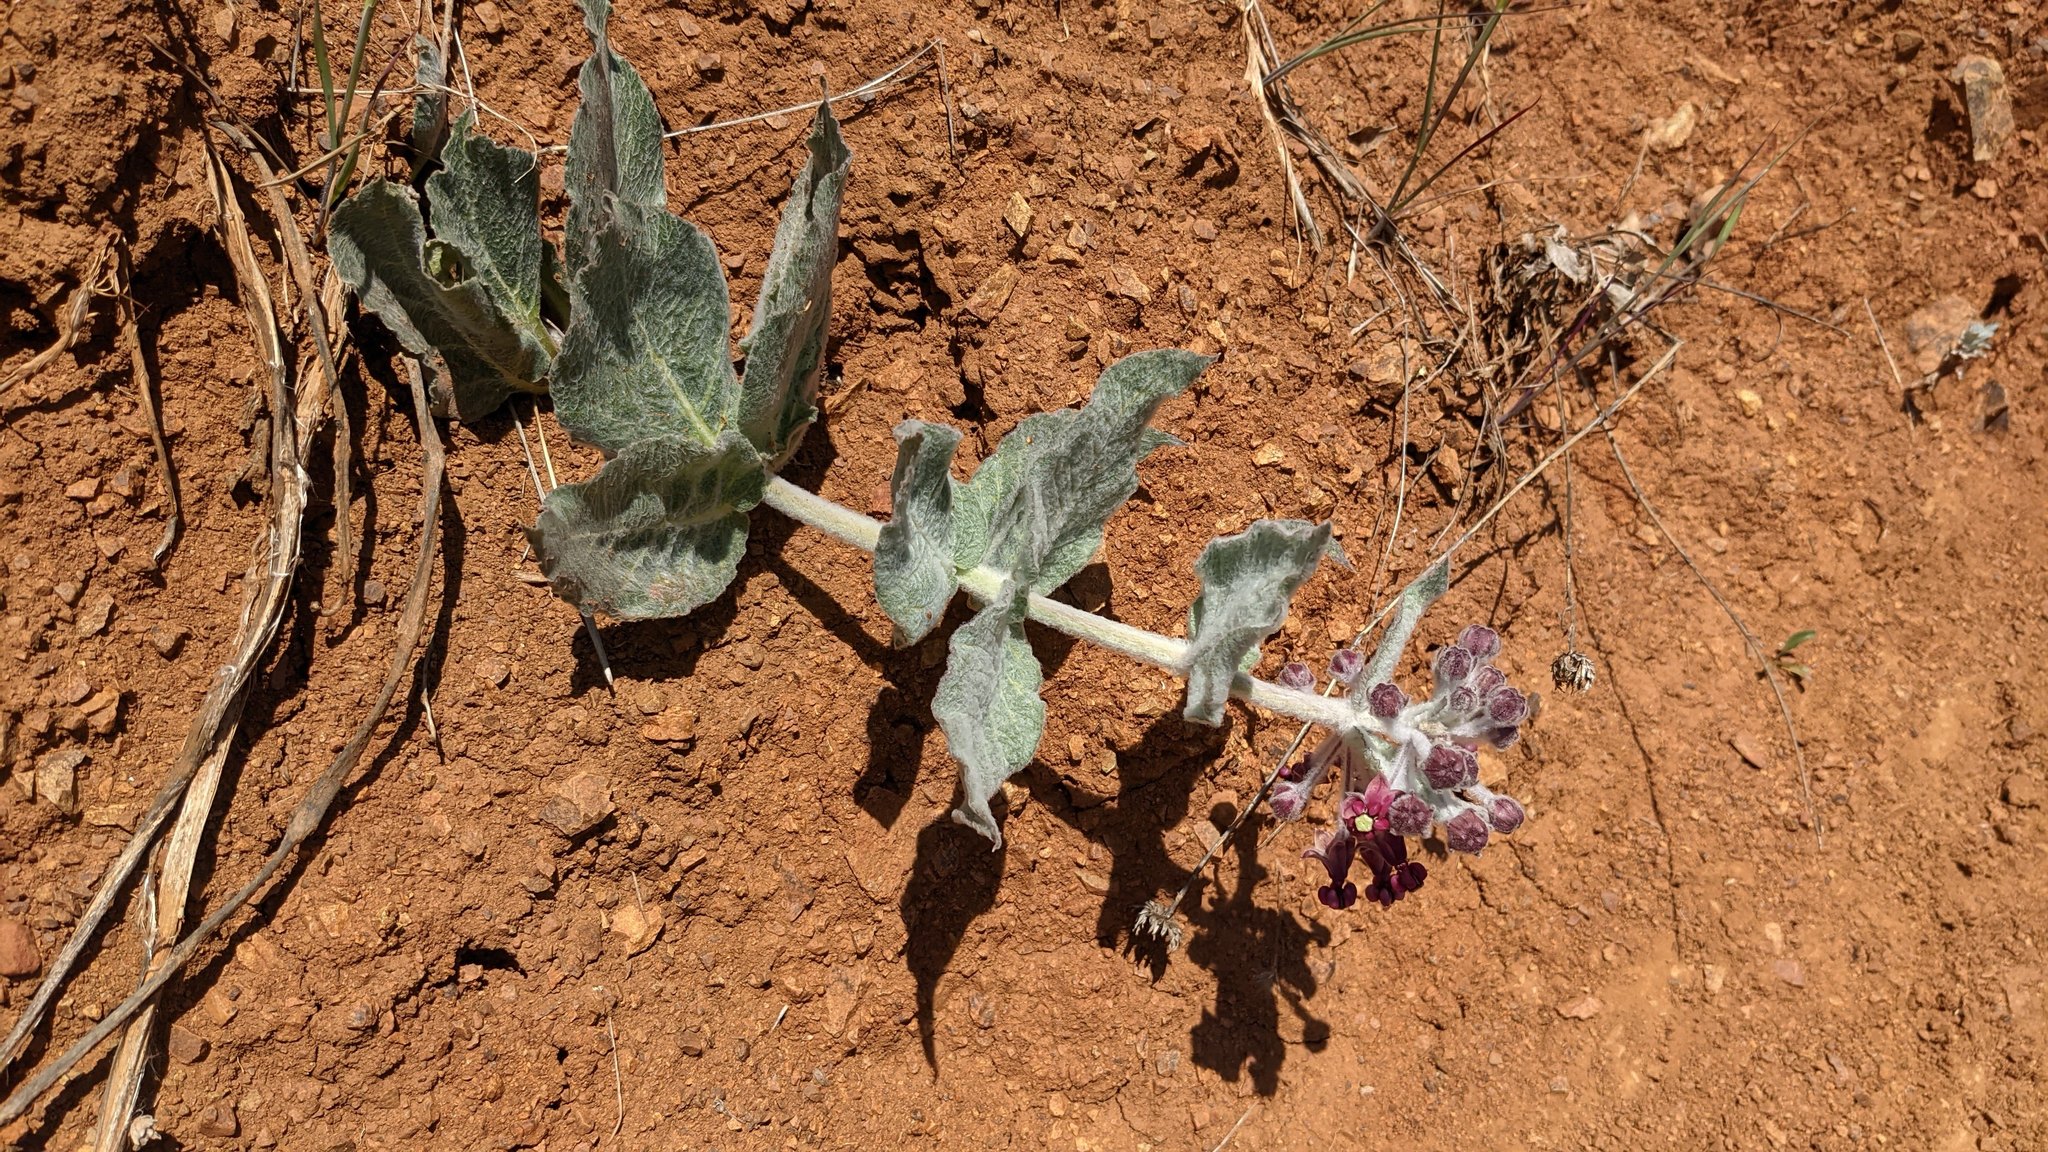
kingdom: Plantae
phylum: Tracheophyta
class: Magnoliopsida
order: Gentianales
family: Apocynaceae
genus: Asclepias
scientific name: Asclepias californica
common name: California milkweed
